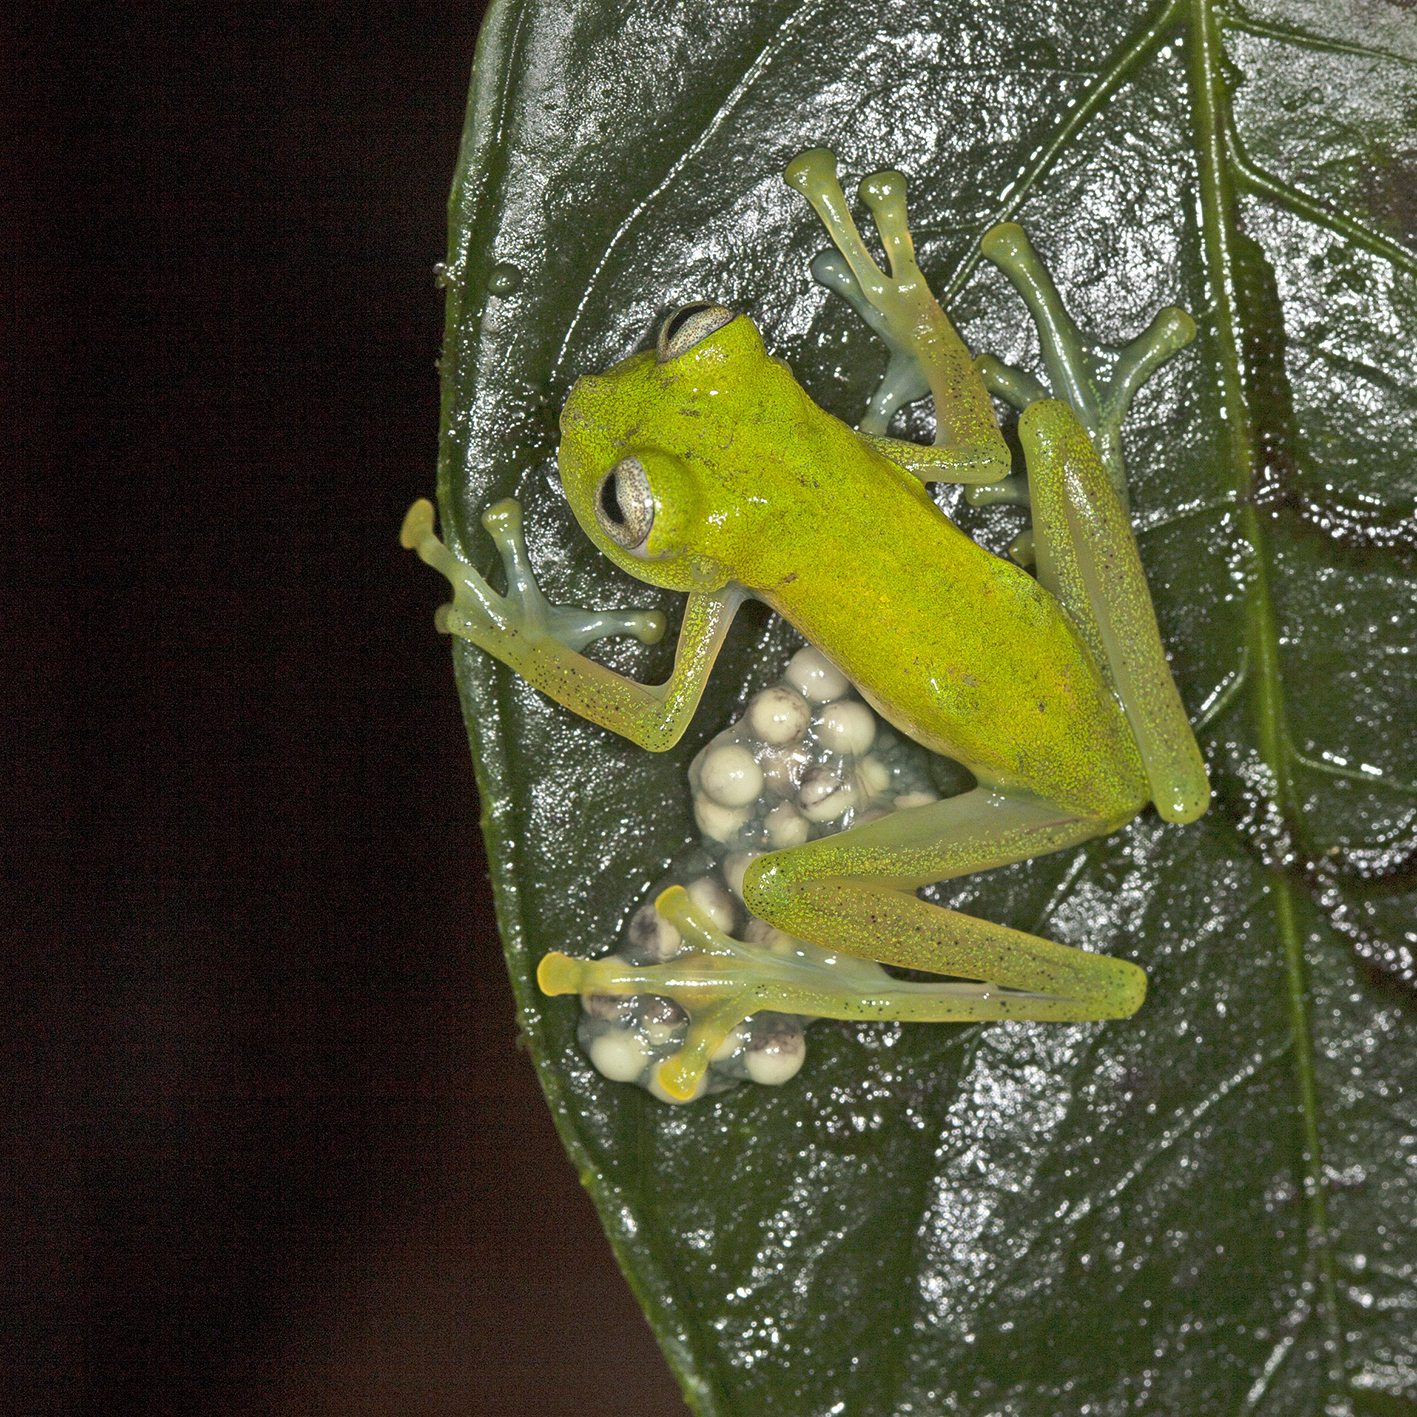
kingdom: Animalia
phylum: Chordata
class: Amphibia
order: Anura
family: Centrolenidae
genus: Nymphargus
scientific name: Nymphargus griffithsi
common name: Ecuador cochran frog
